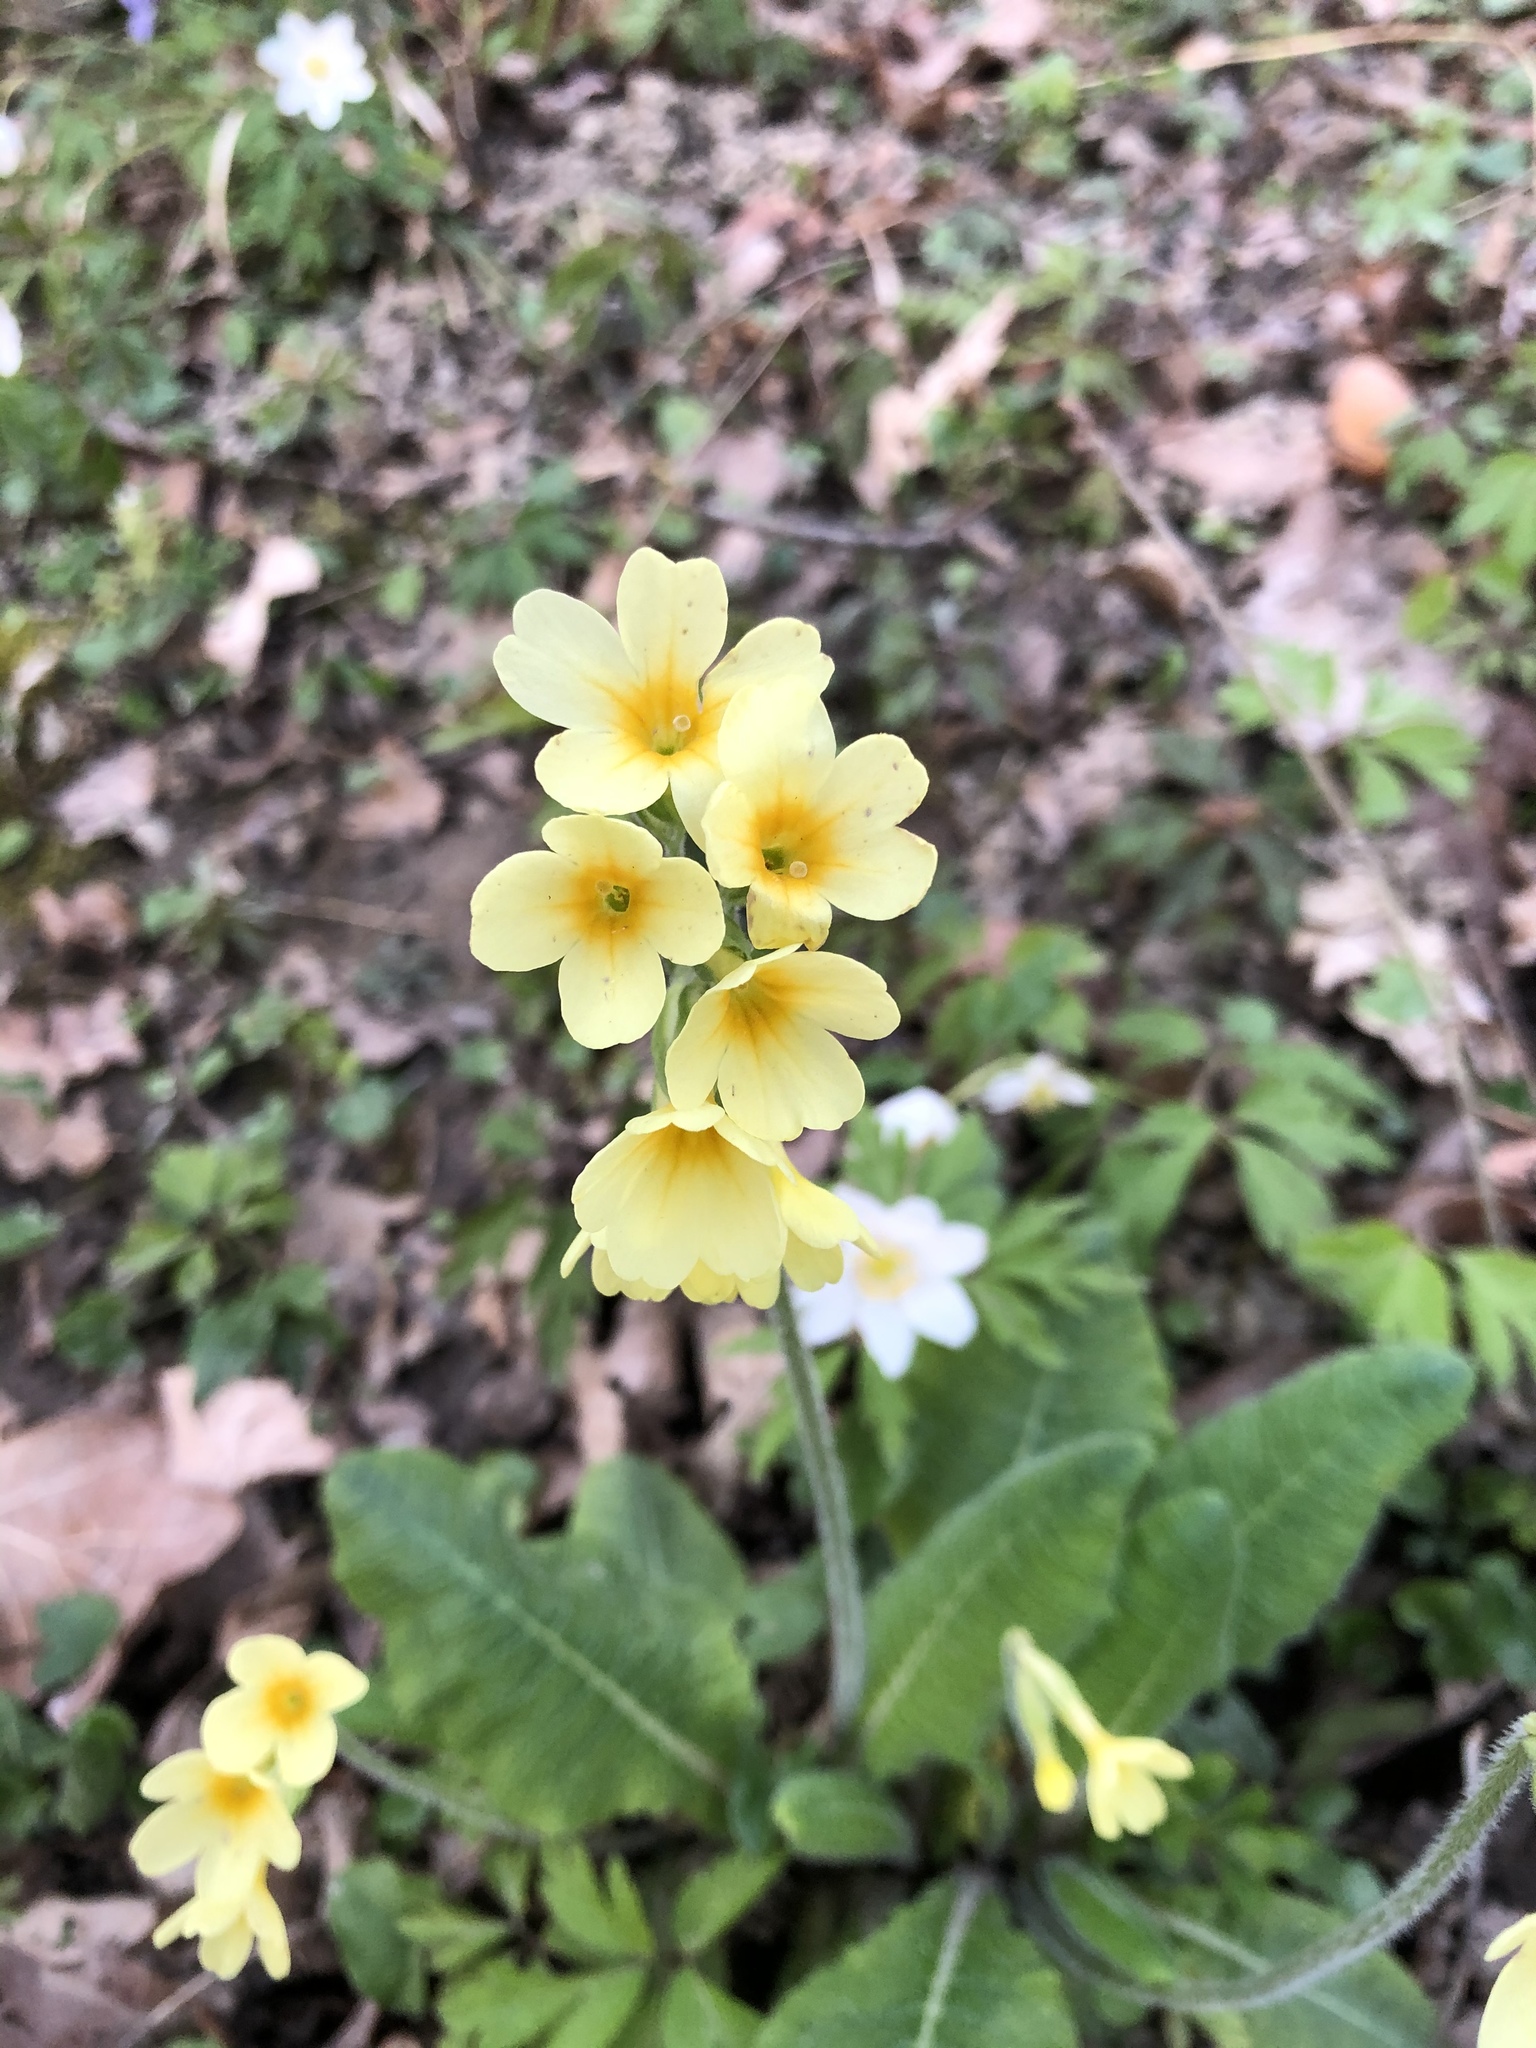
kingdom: Plantae
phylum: Tracheophyta
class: Magnoliopsida
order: Ericales
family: Primulaceae
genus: Primula
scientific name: Primula elatior
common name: Oxlip
